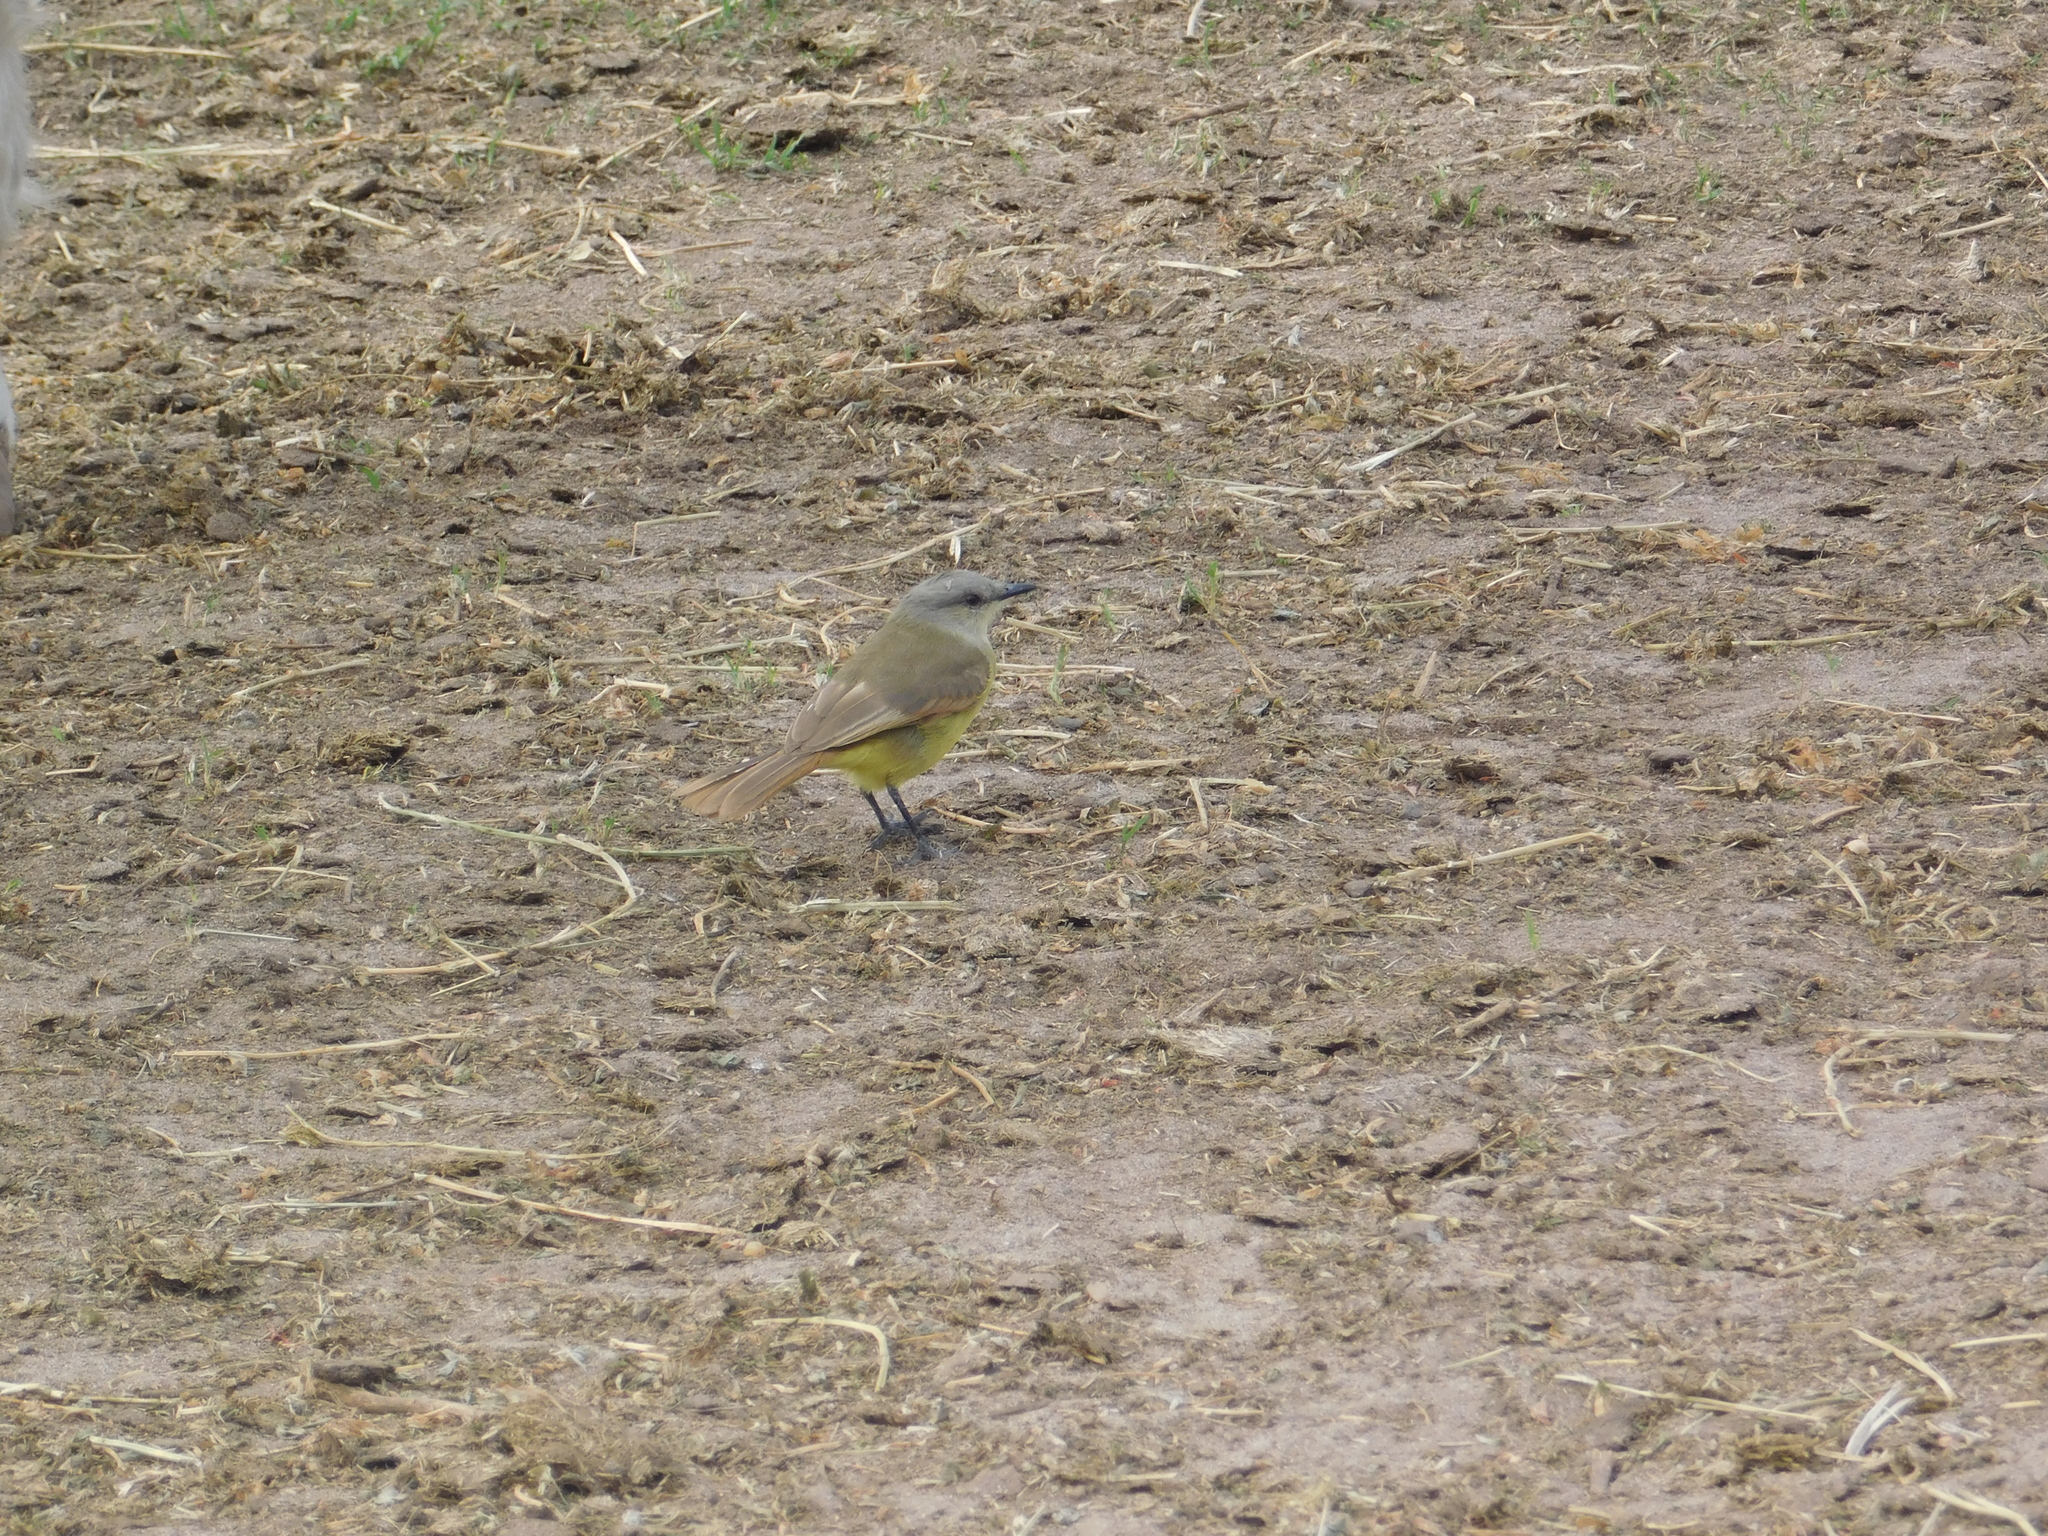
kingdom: Animalia
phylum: Chordata
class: Aves
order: Passeriformes
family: Tyrannidae
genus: Machetornis
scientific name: Machetornis rixosa
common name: Cattle tyrant
